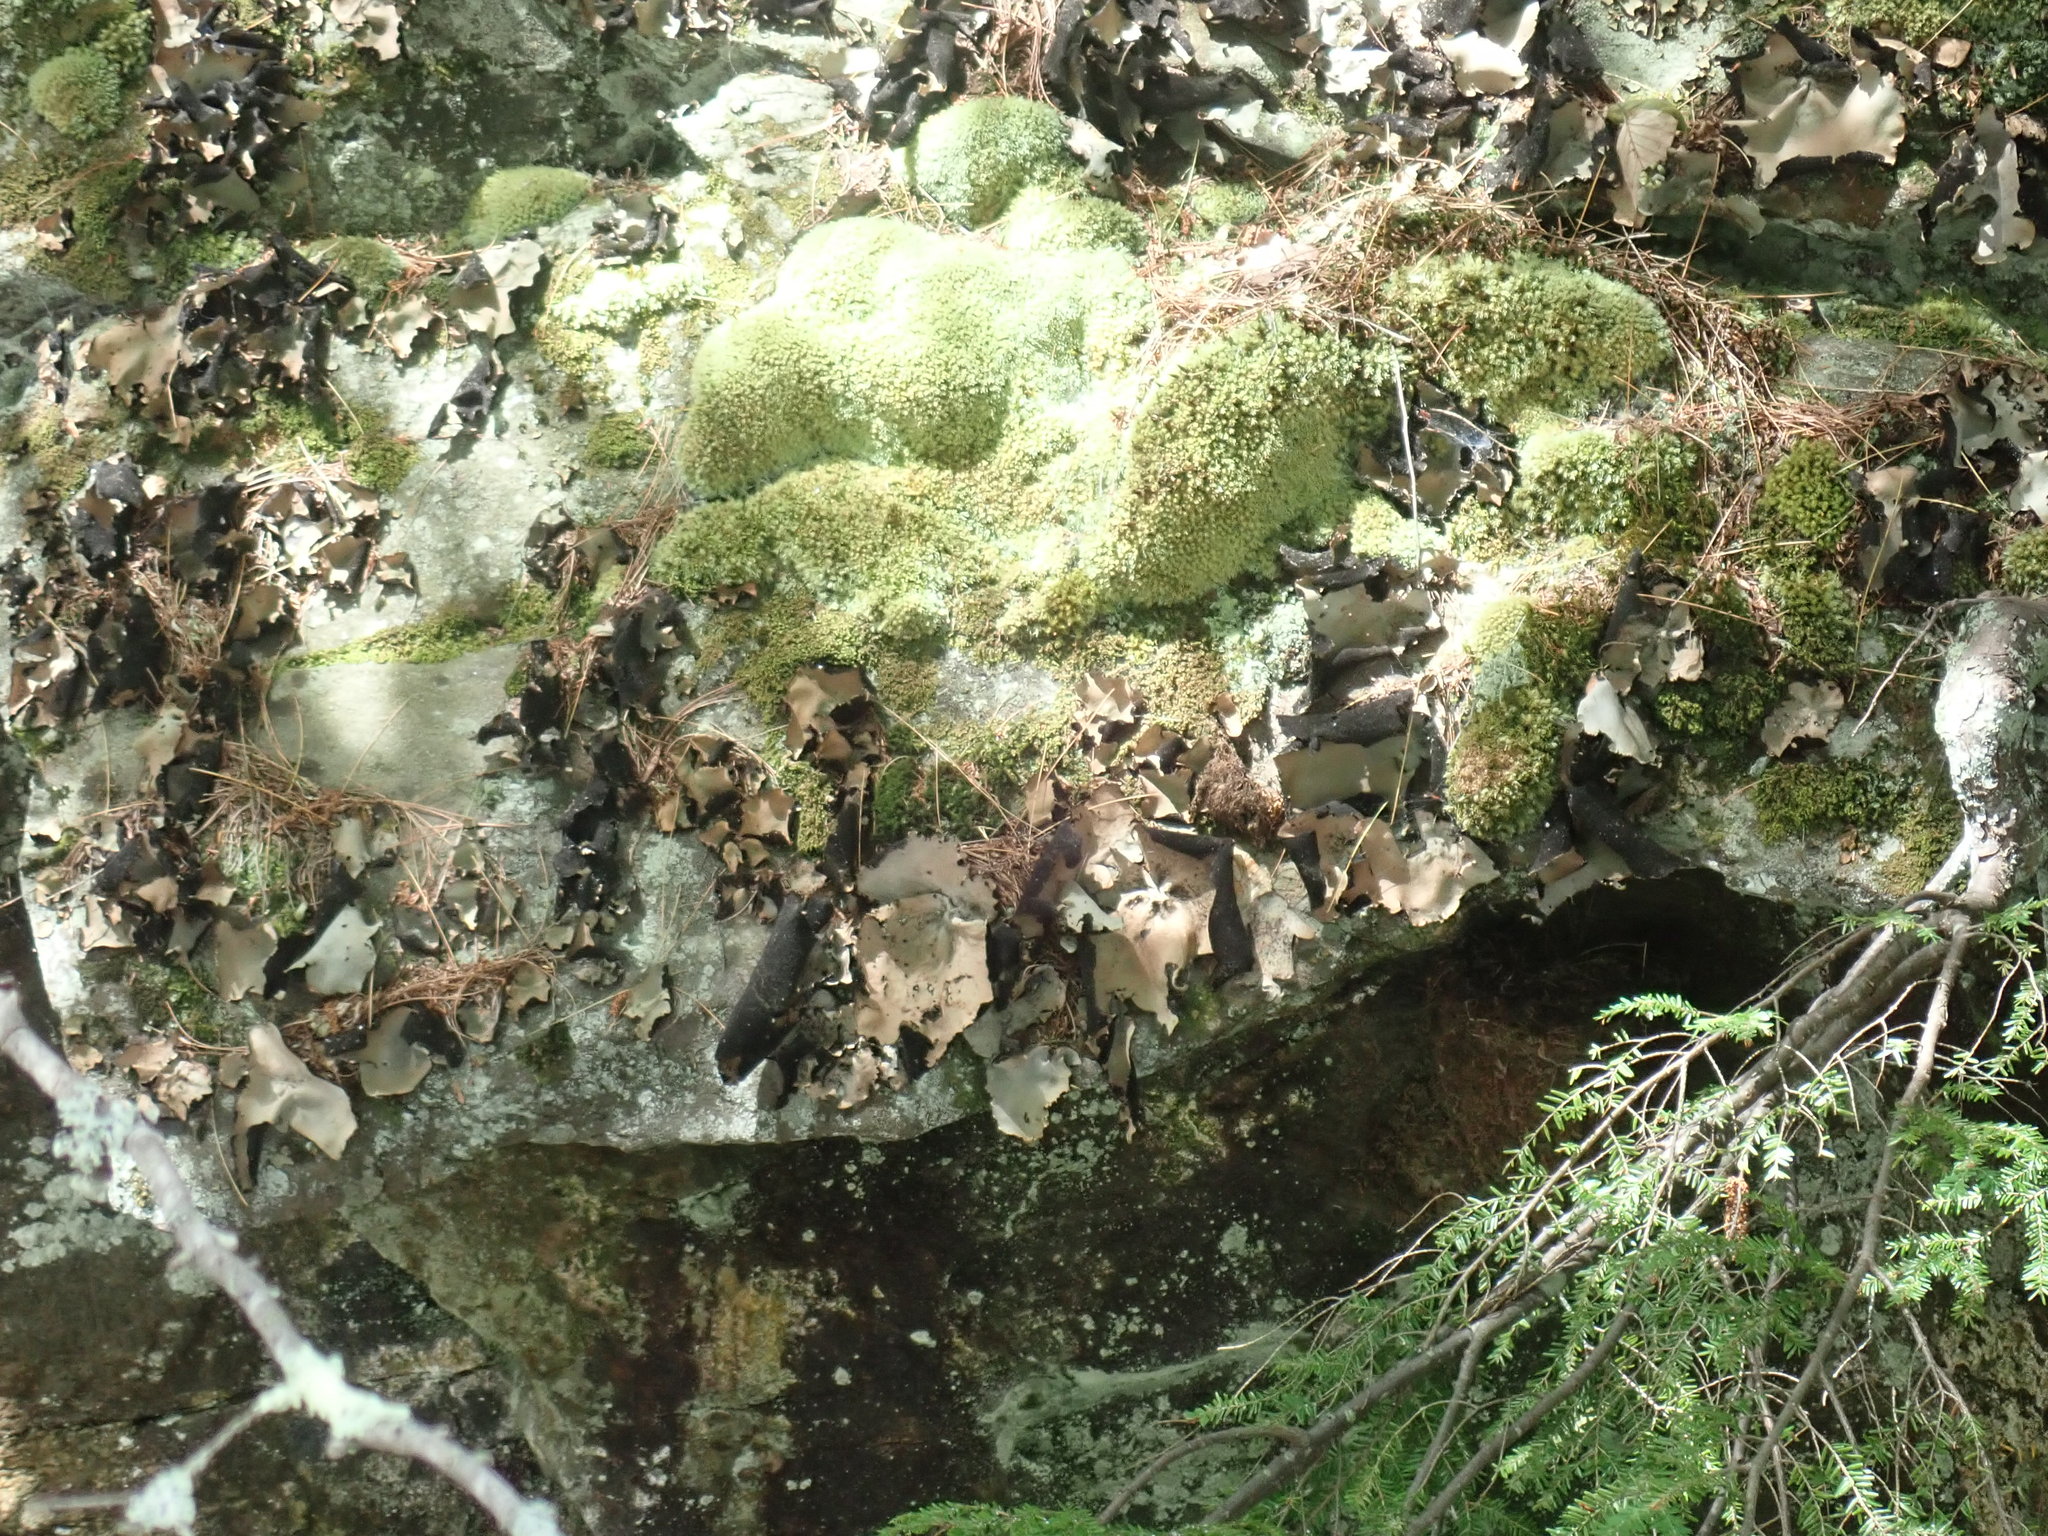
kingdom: Fungi
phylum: Ascomycota
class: Lecanoromycetes
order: Umbilicariales
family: Umbilicariaceae
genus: Umbilicaria
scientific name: Umbilicaria mammulata
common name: Smooth rock tripe
